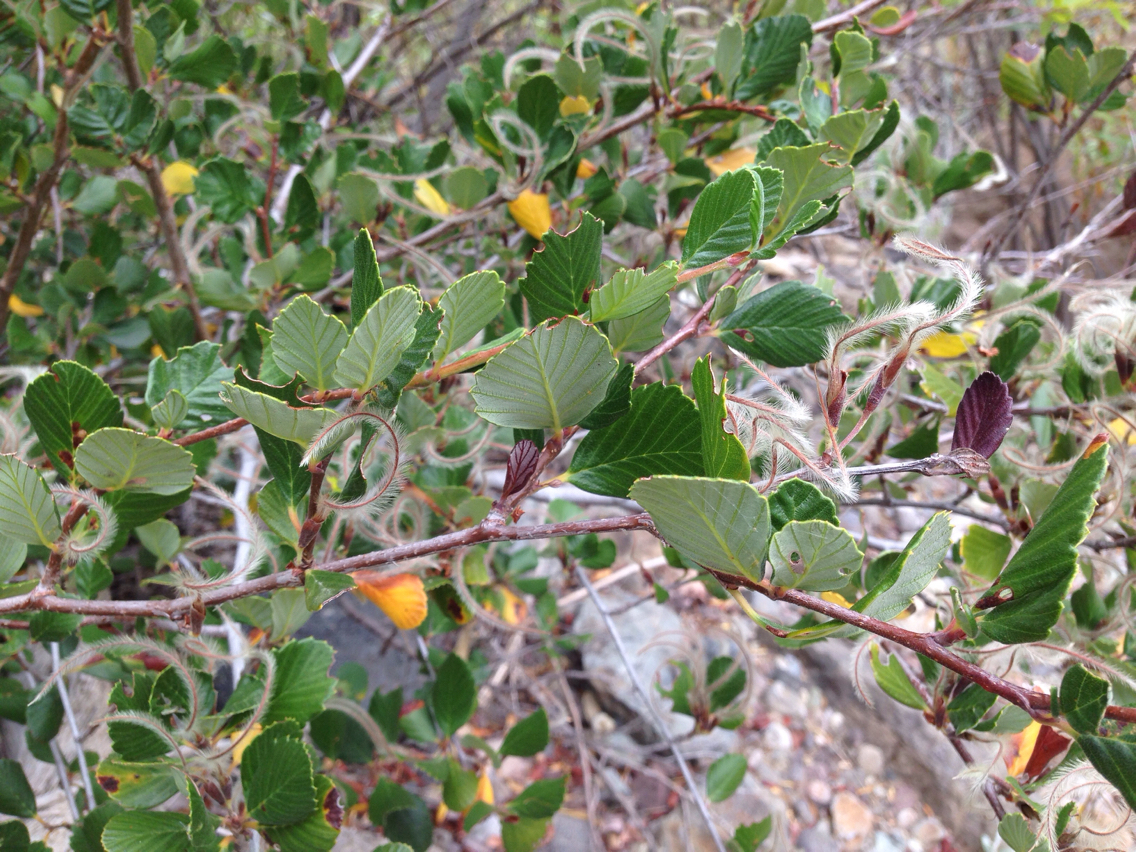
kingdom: Plantae
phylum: Tracheophyta
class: Magnoliopsida
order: Rosales
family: Rosaceae
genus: Cercocarpus
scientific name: Cercocarpus betuloides
